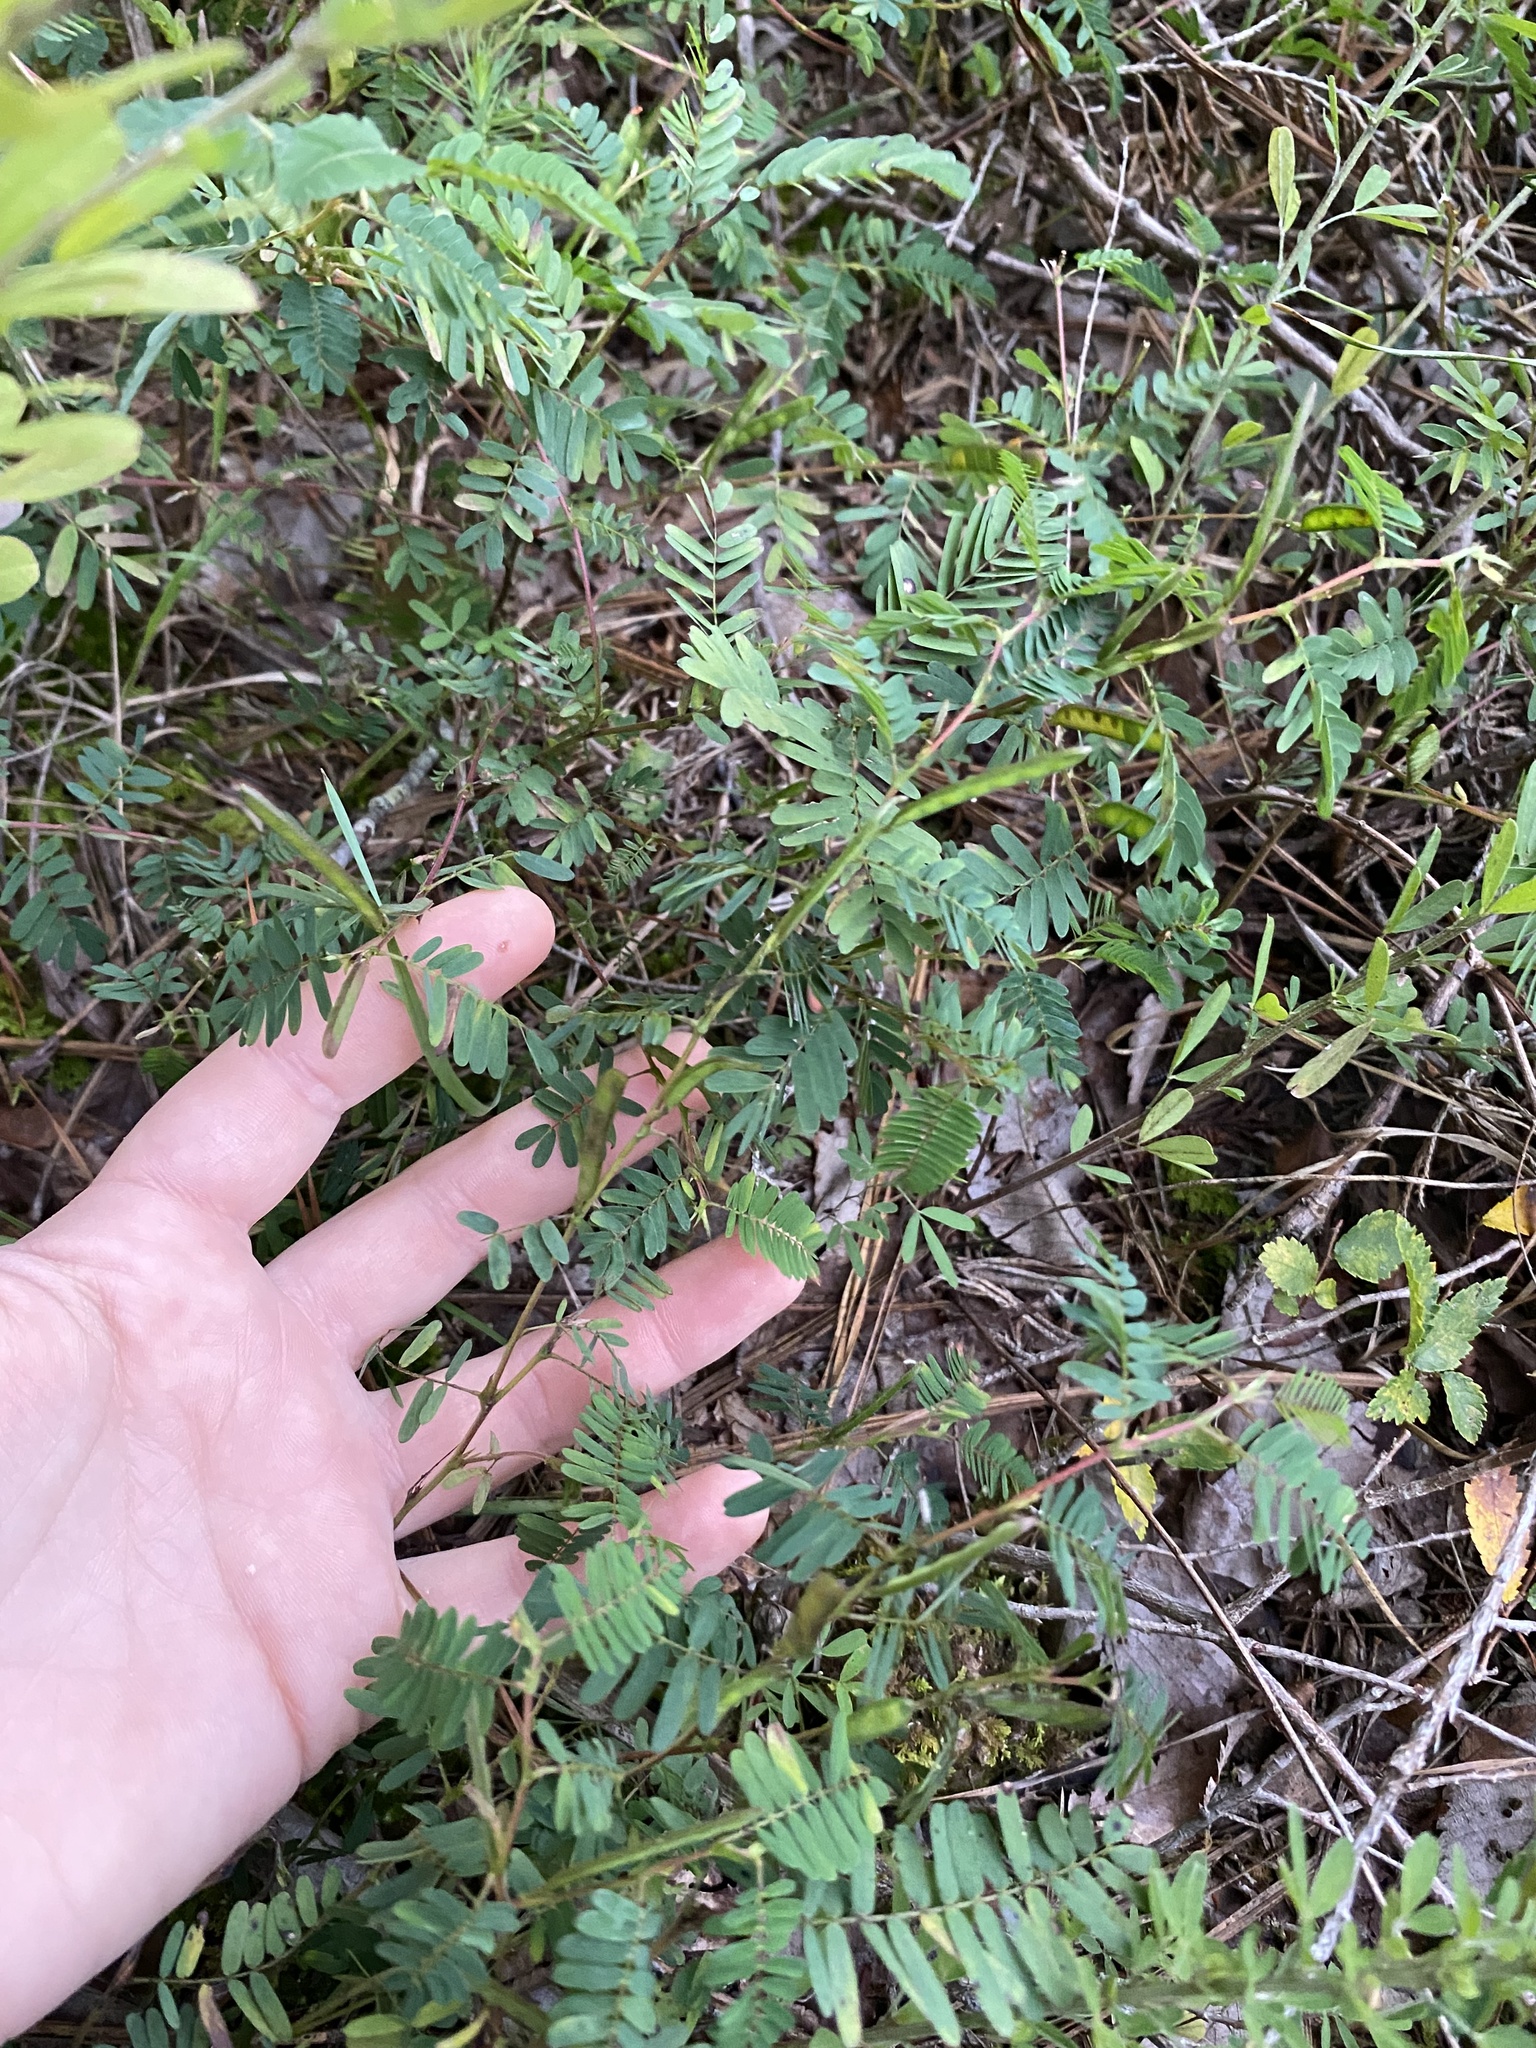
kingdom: Plantae
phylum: Tracheophyta
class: Magnoliopsida
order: Fabales
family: Fabaceae
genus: Chamaecrista
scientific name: Chamaecrista nictitans
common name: Sensitive cassia
